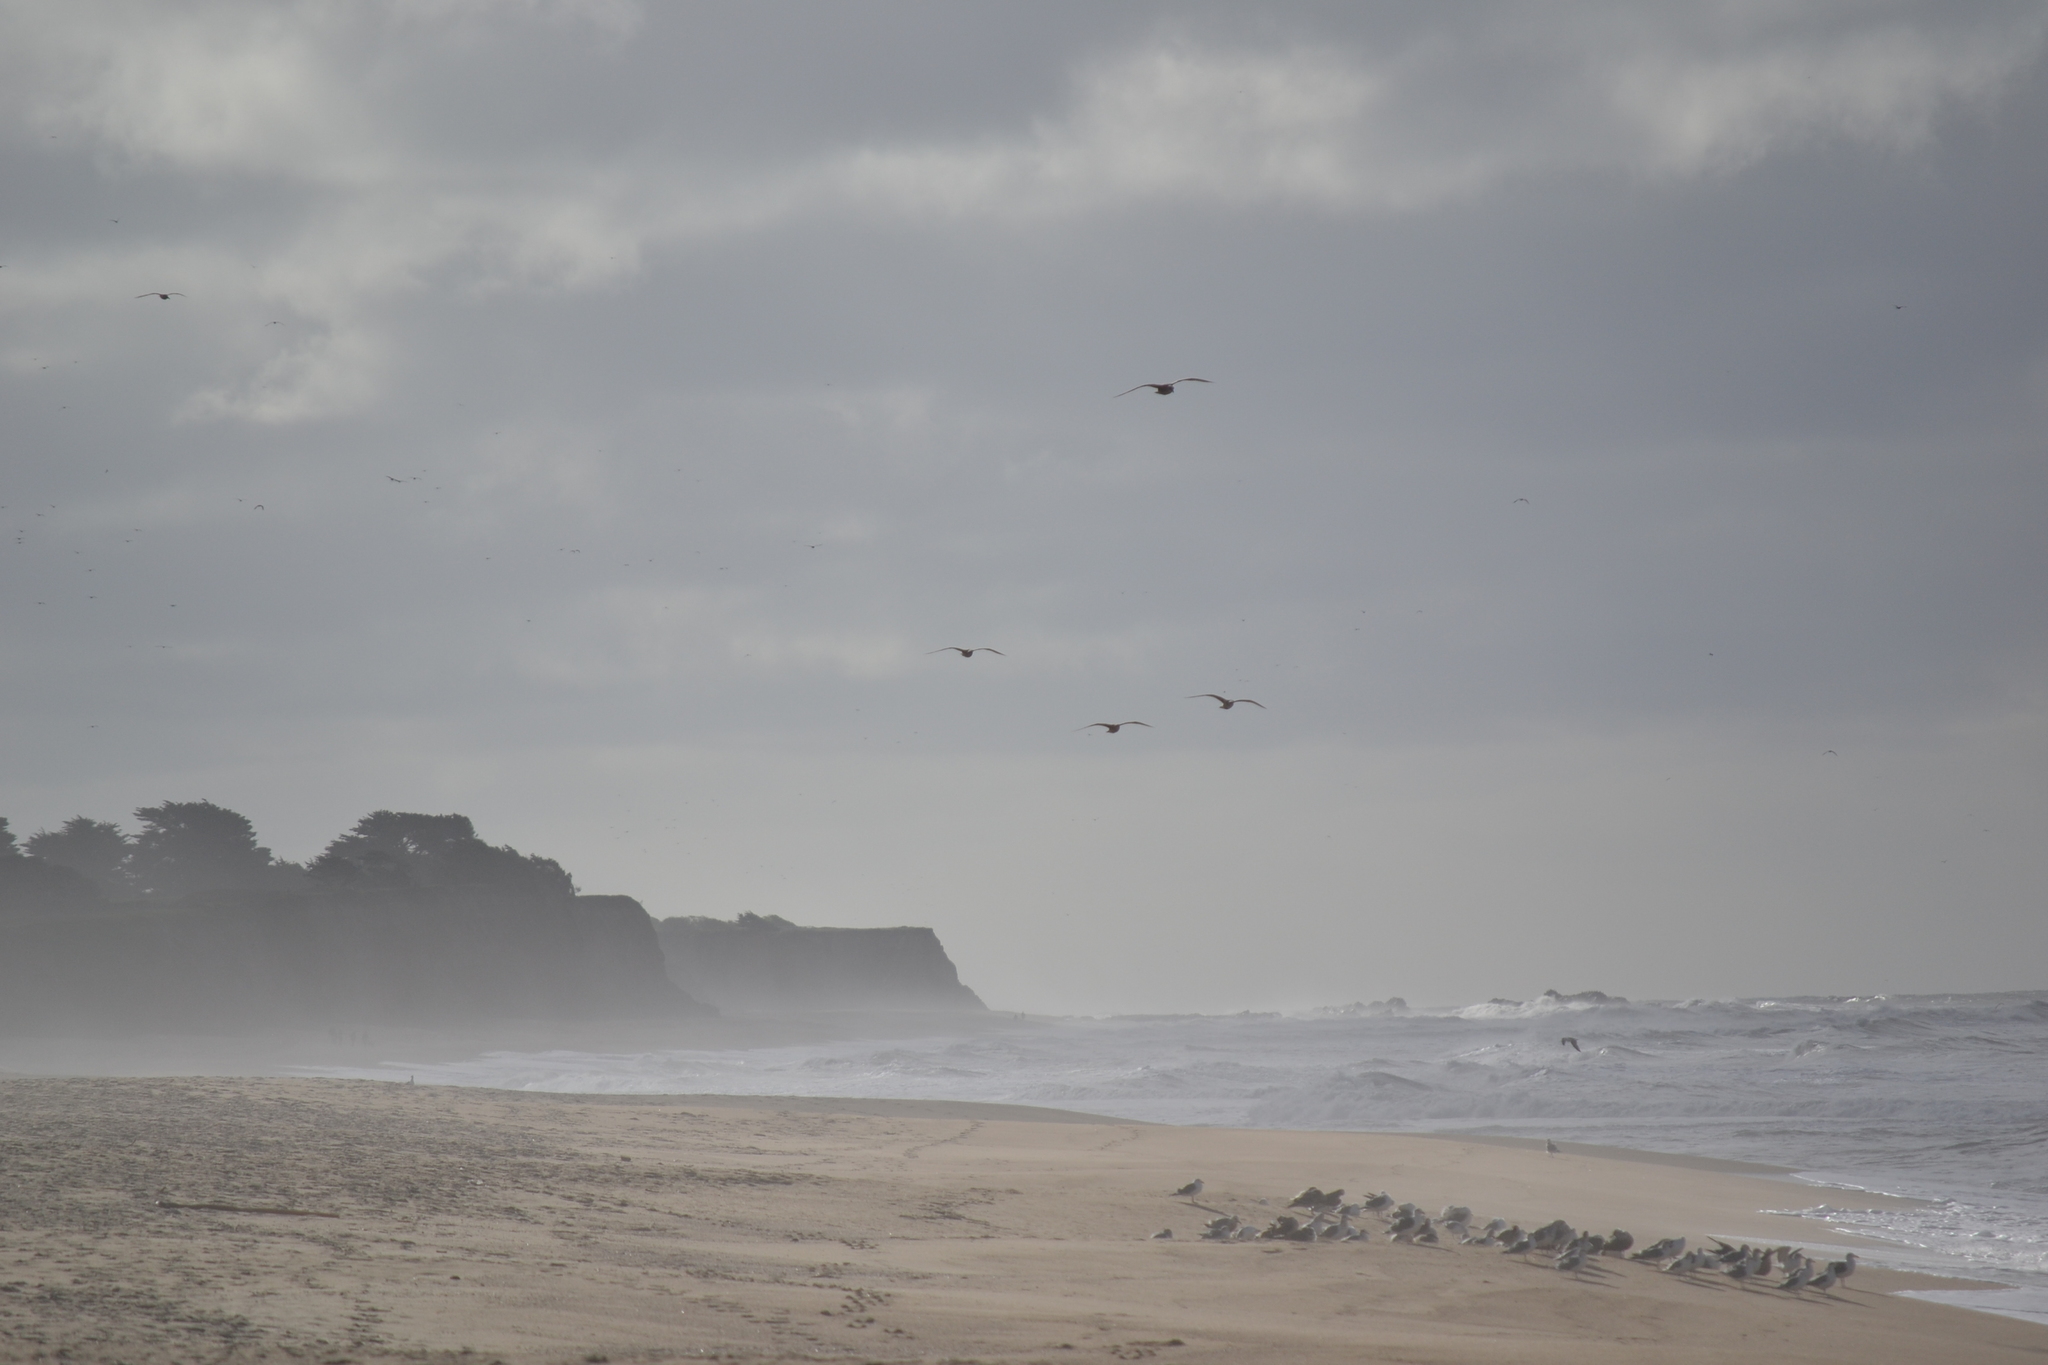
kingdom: Animalia
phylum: Chordata
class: Aves
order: Charadriiformes
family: Laridae
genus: Larus
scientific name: Larus
